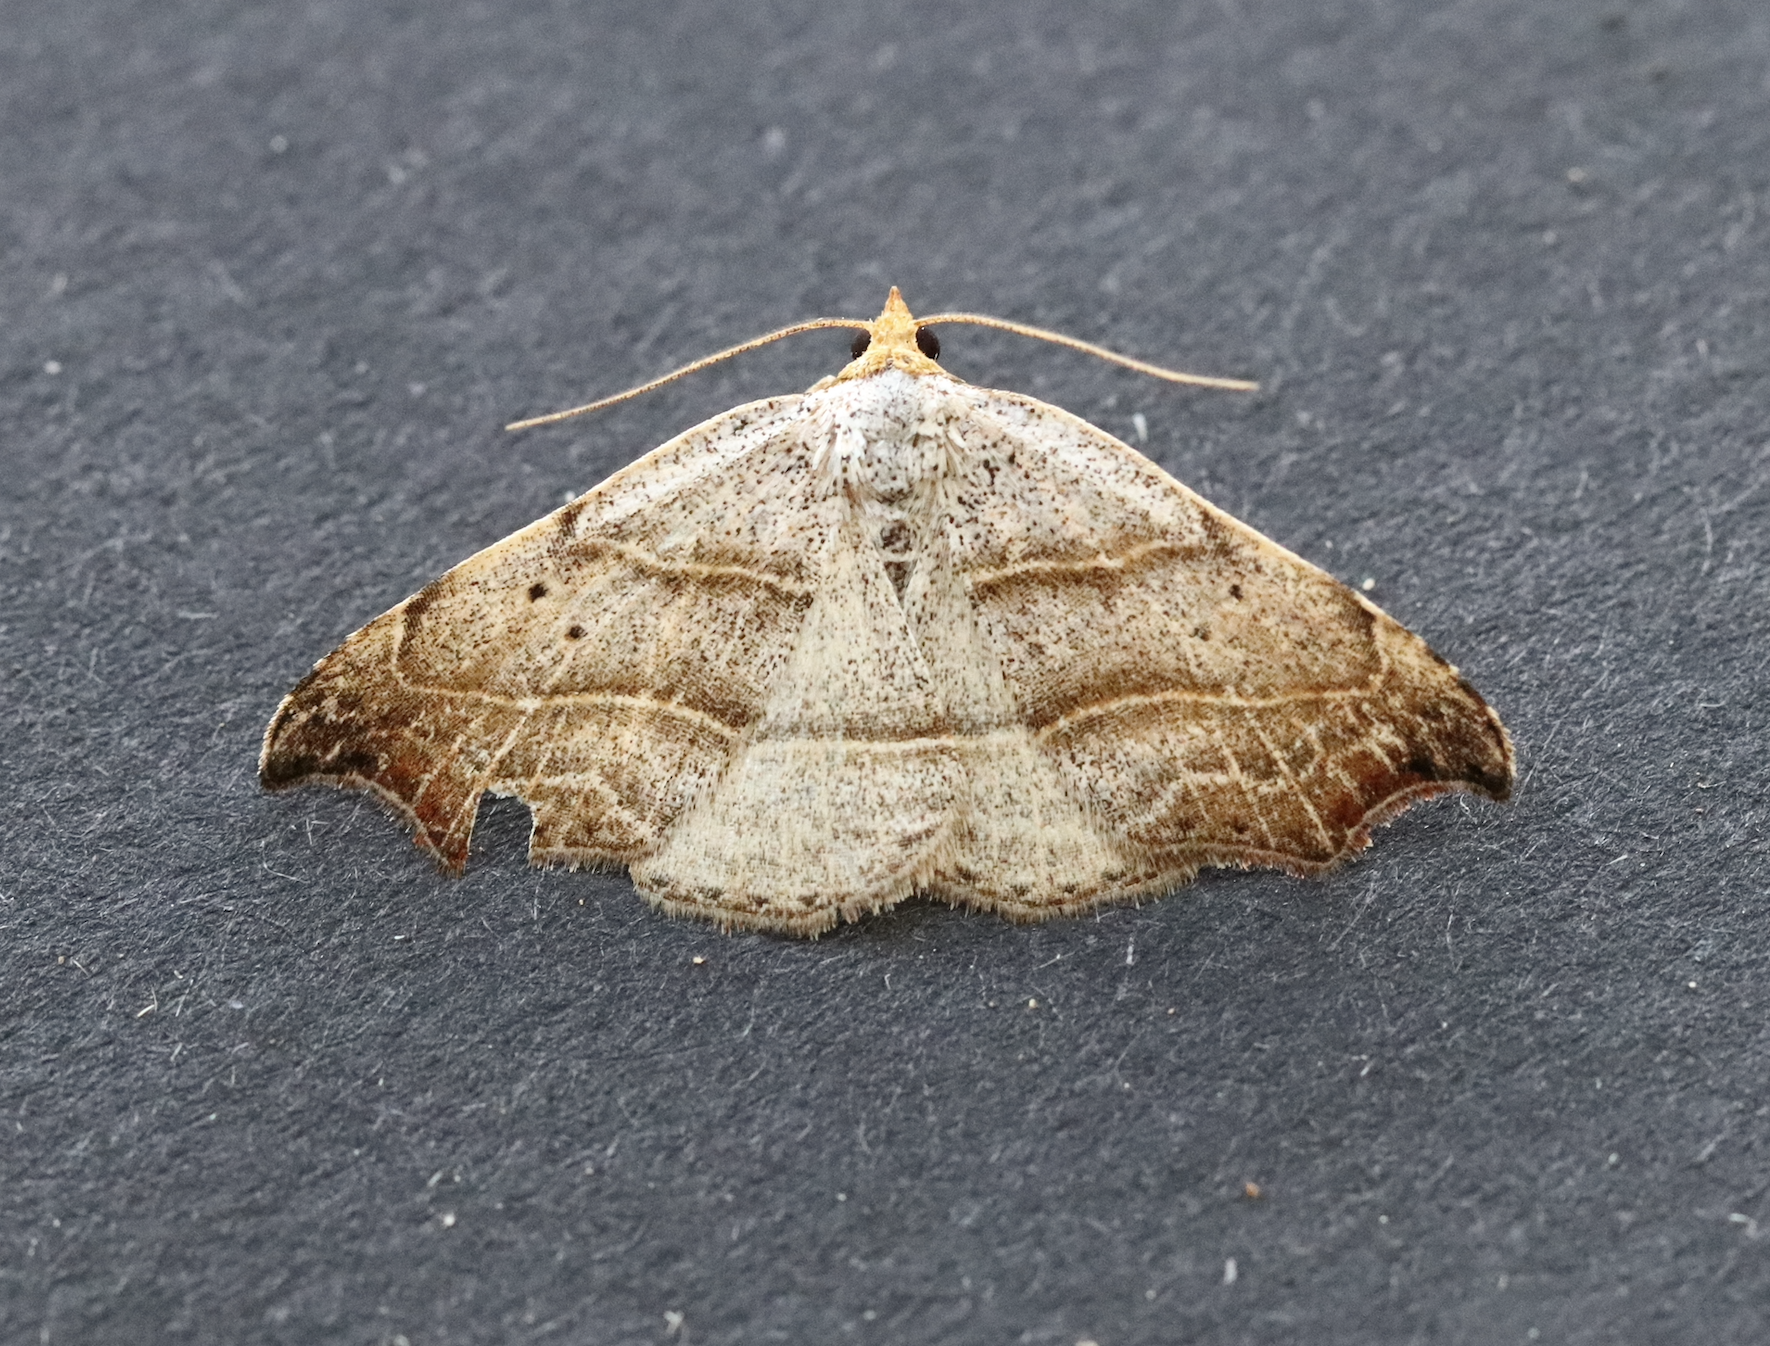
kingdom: Animalia
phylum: Arthropoda
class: Insecta
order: Lepidoptera
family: Erebidae
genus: Laspeyria
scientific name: Laspeyria flexula
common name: Beautiful hook-tip
